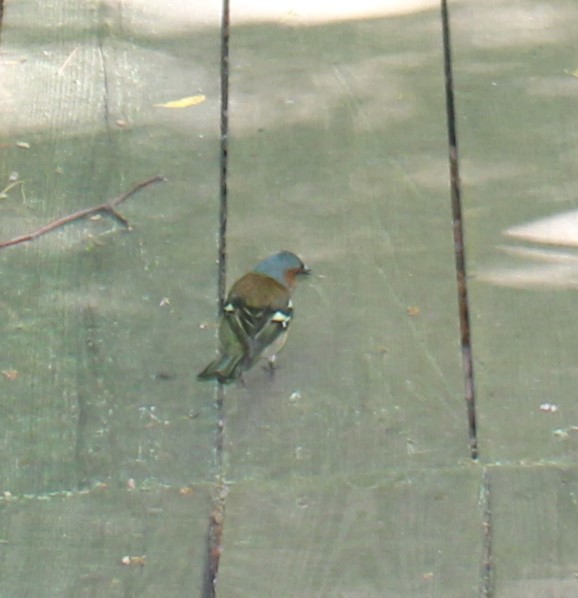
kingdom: Animalia
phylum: Chordata
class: Aves
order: Passeriformes
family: Fringillidae
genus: Fringilla
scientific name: Fringilla coelebs
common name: Common chaffinch
